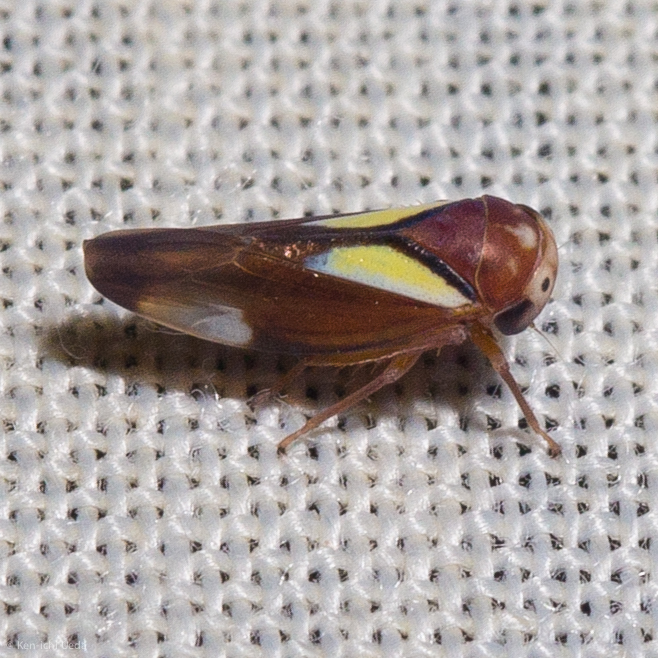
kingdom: Animalia
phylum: Arthropoda
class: Insecta
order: Hemiptera
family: Cicadellidae
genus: Balcanocerus
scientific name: Balcanocerus provancheri
